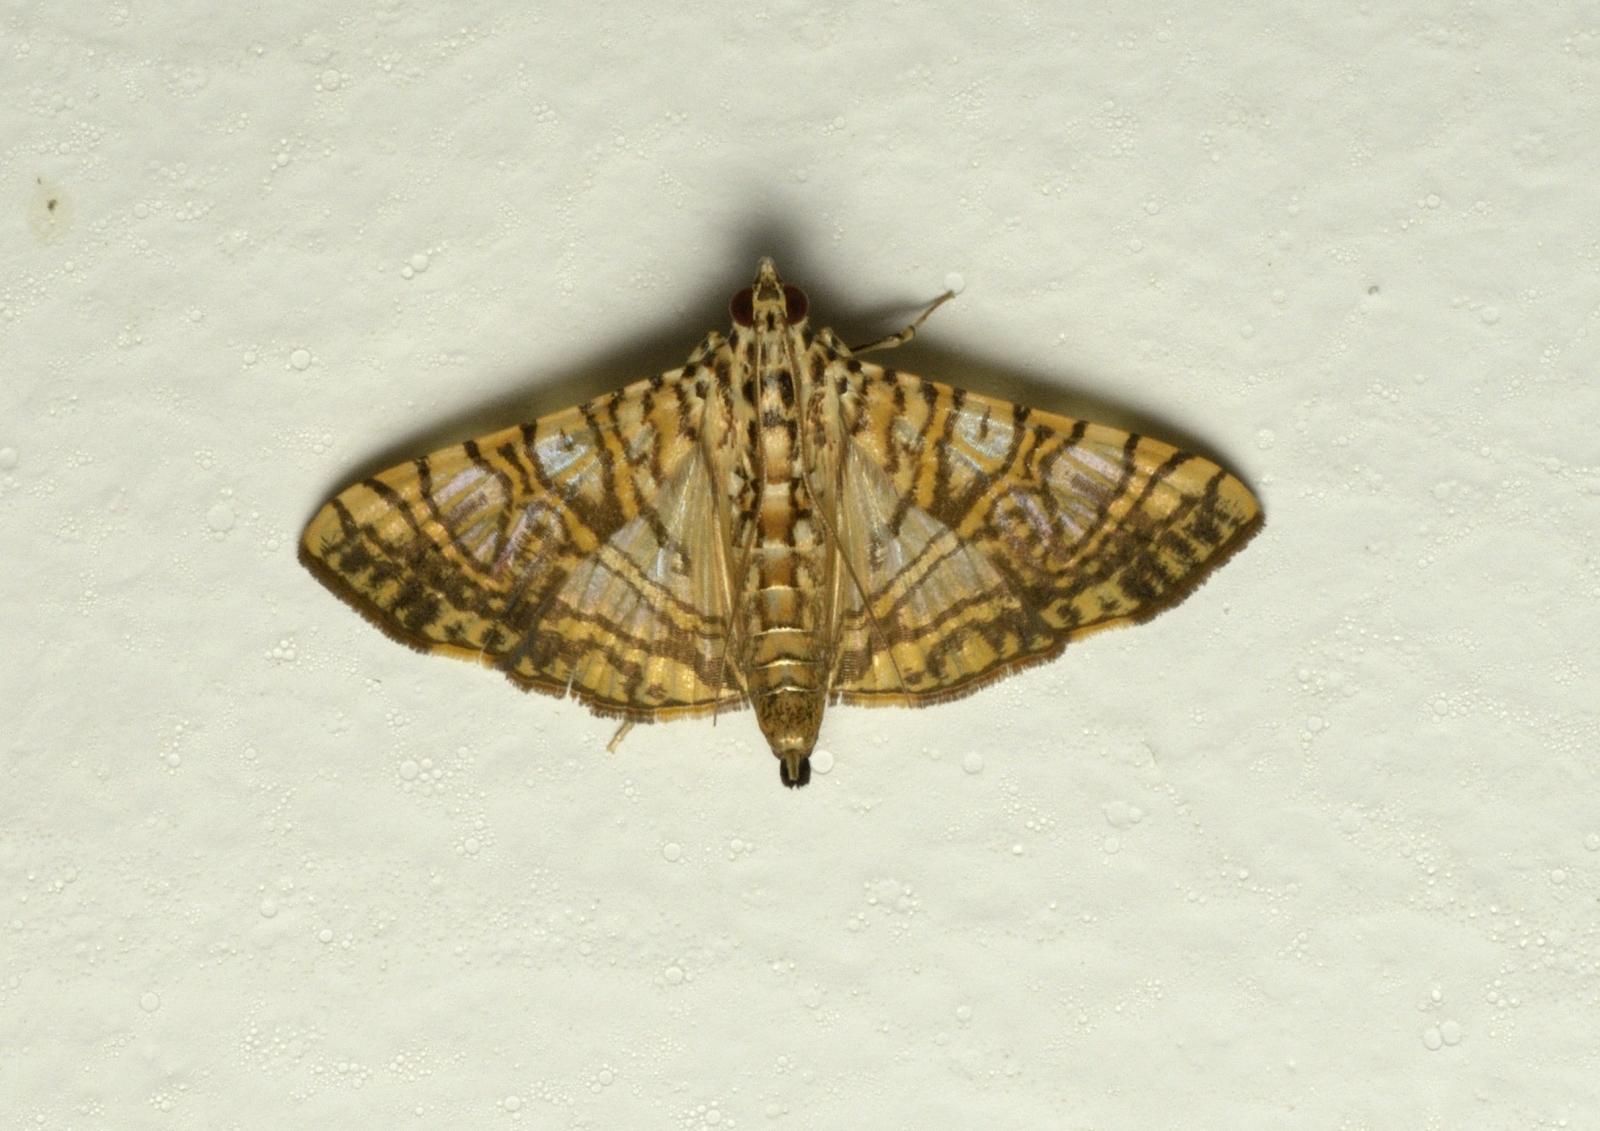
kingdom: Animalia
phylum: Arthropoda
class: Insecta
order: Lepidoptera
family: Crambidae
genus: Glyphodes
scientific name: Glyphodes caesalis
